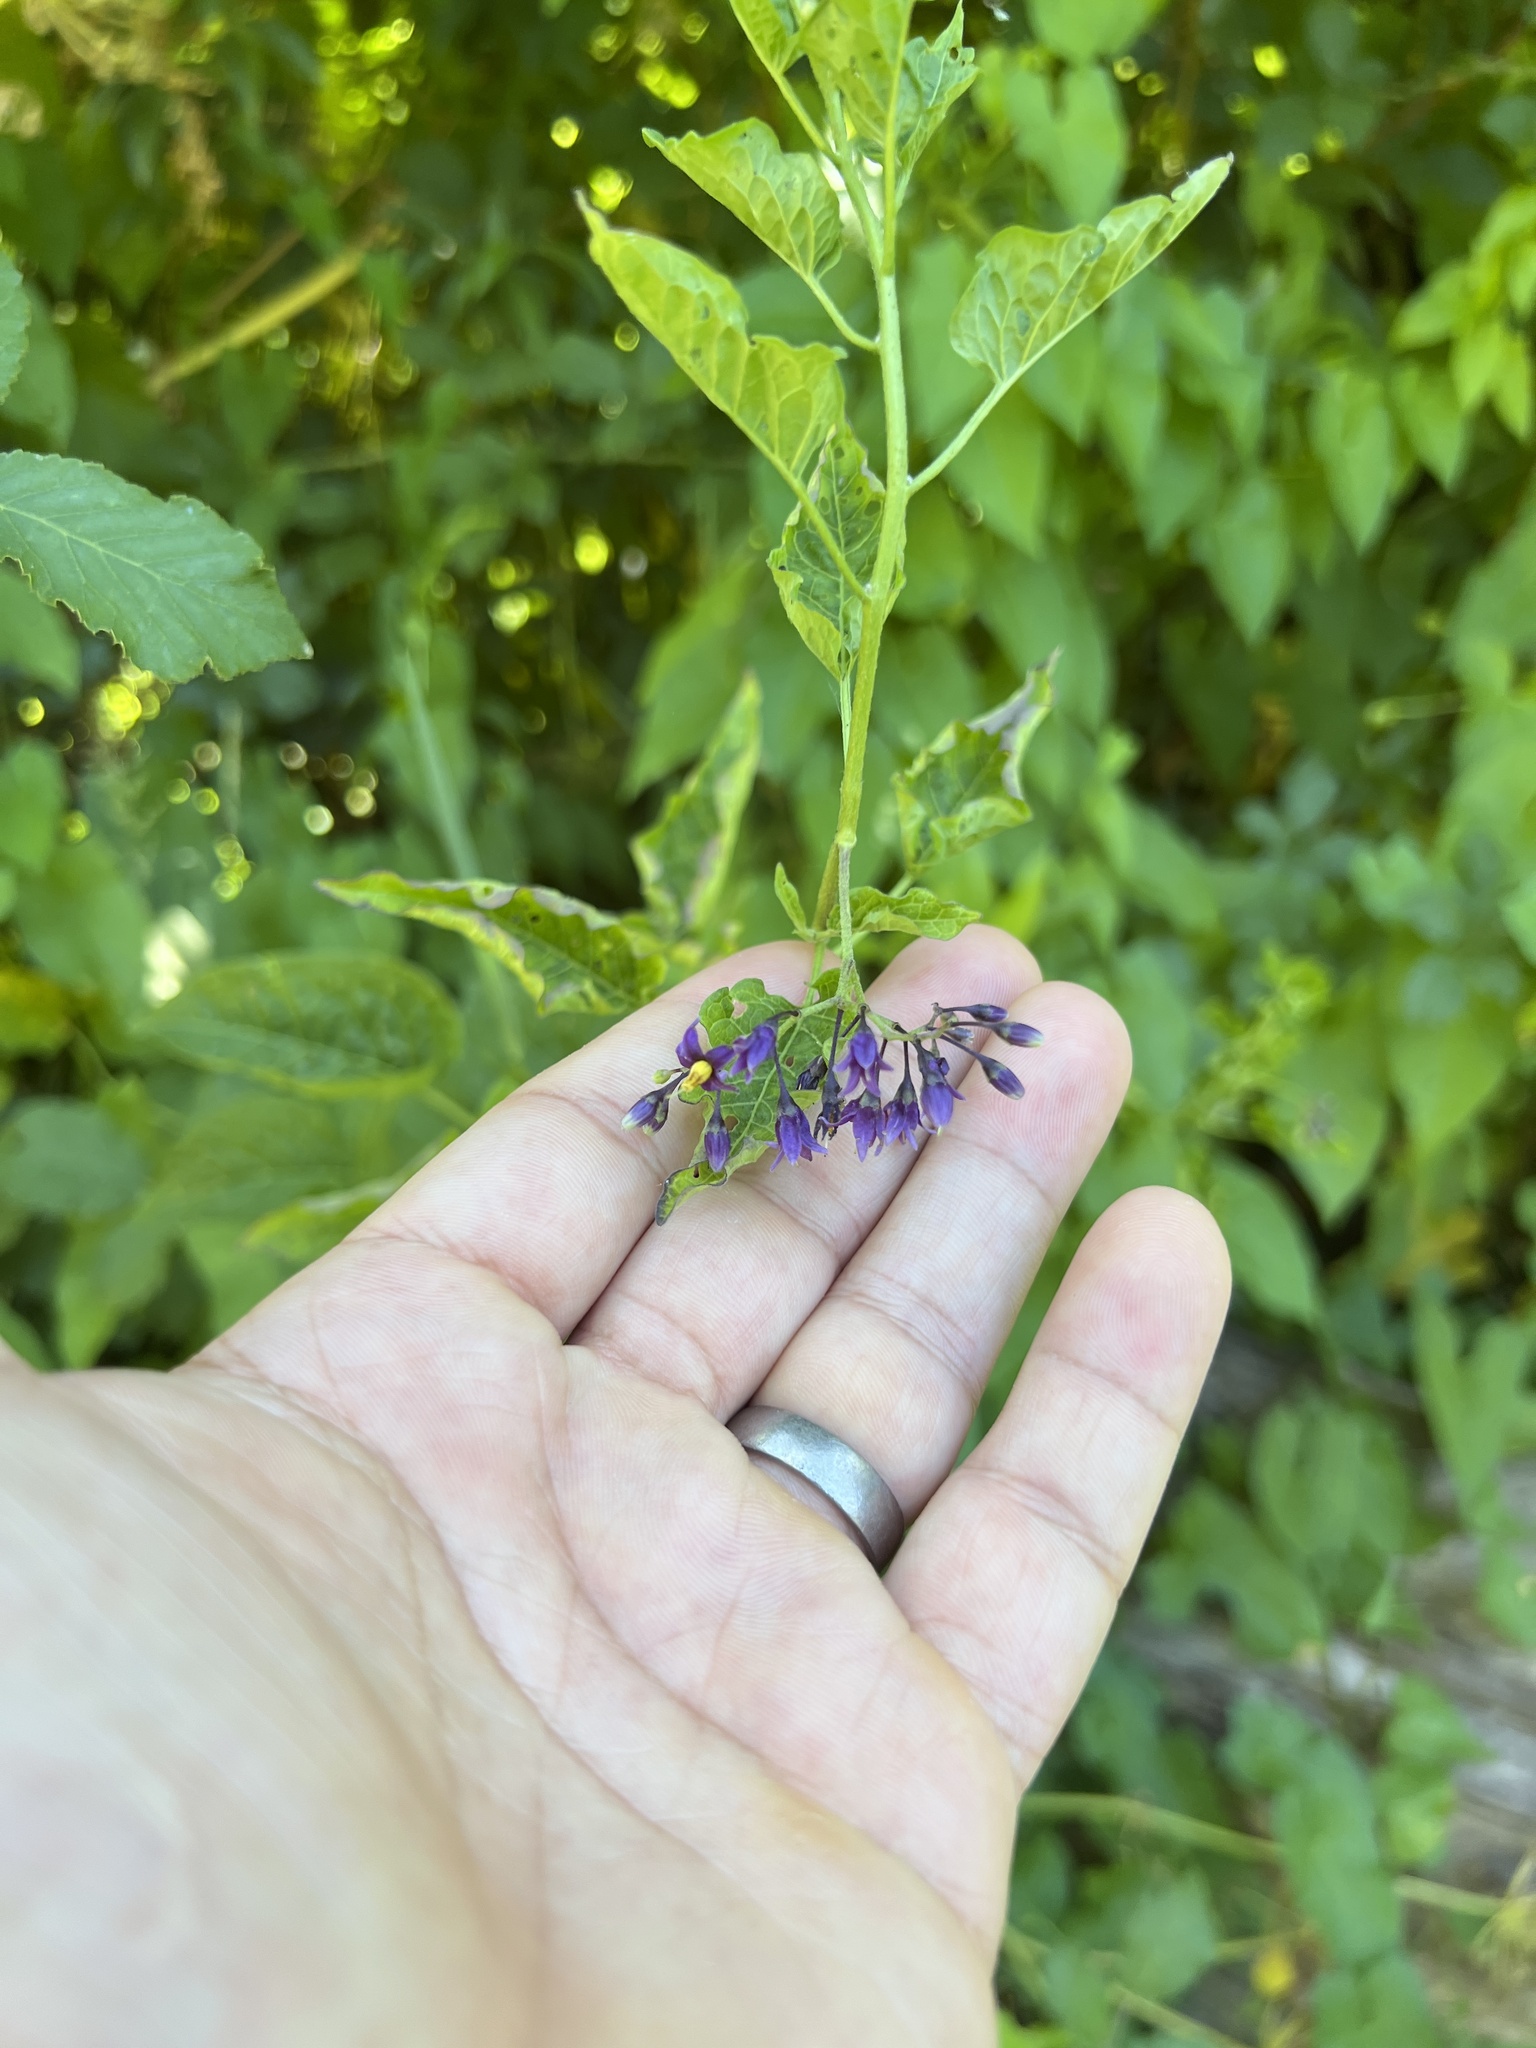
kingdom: Plantae
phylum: Tracheophyta
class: Magnoliopsida
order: Solanales
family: Solanaceae
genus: Solanum
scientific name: Solanum dulcamara
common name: Climbing nightshade
